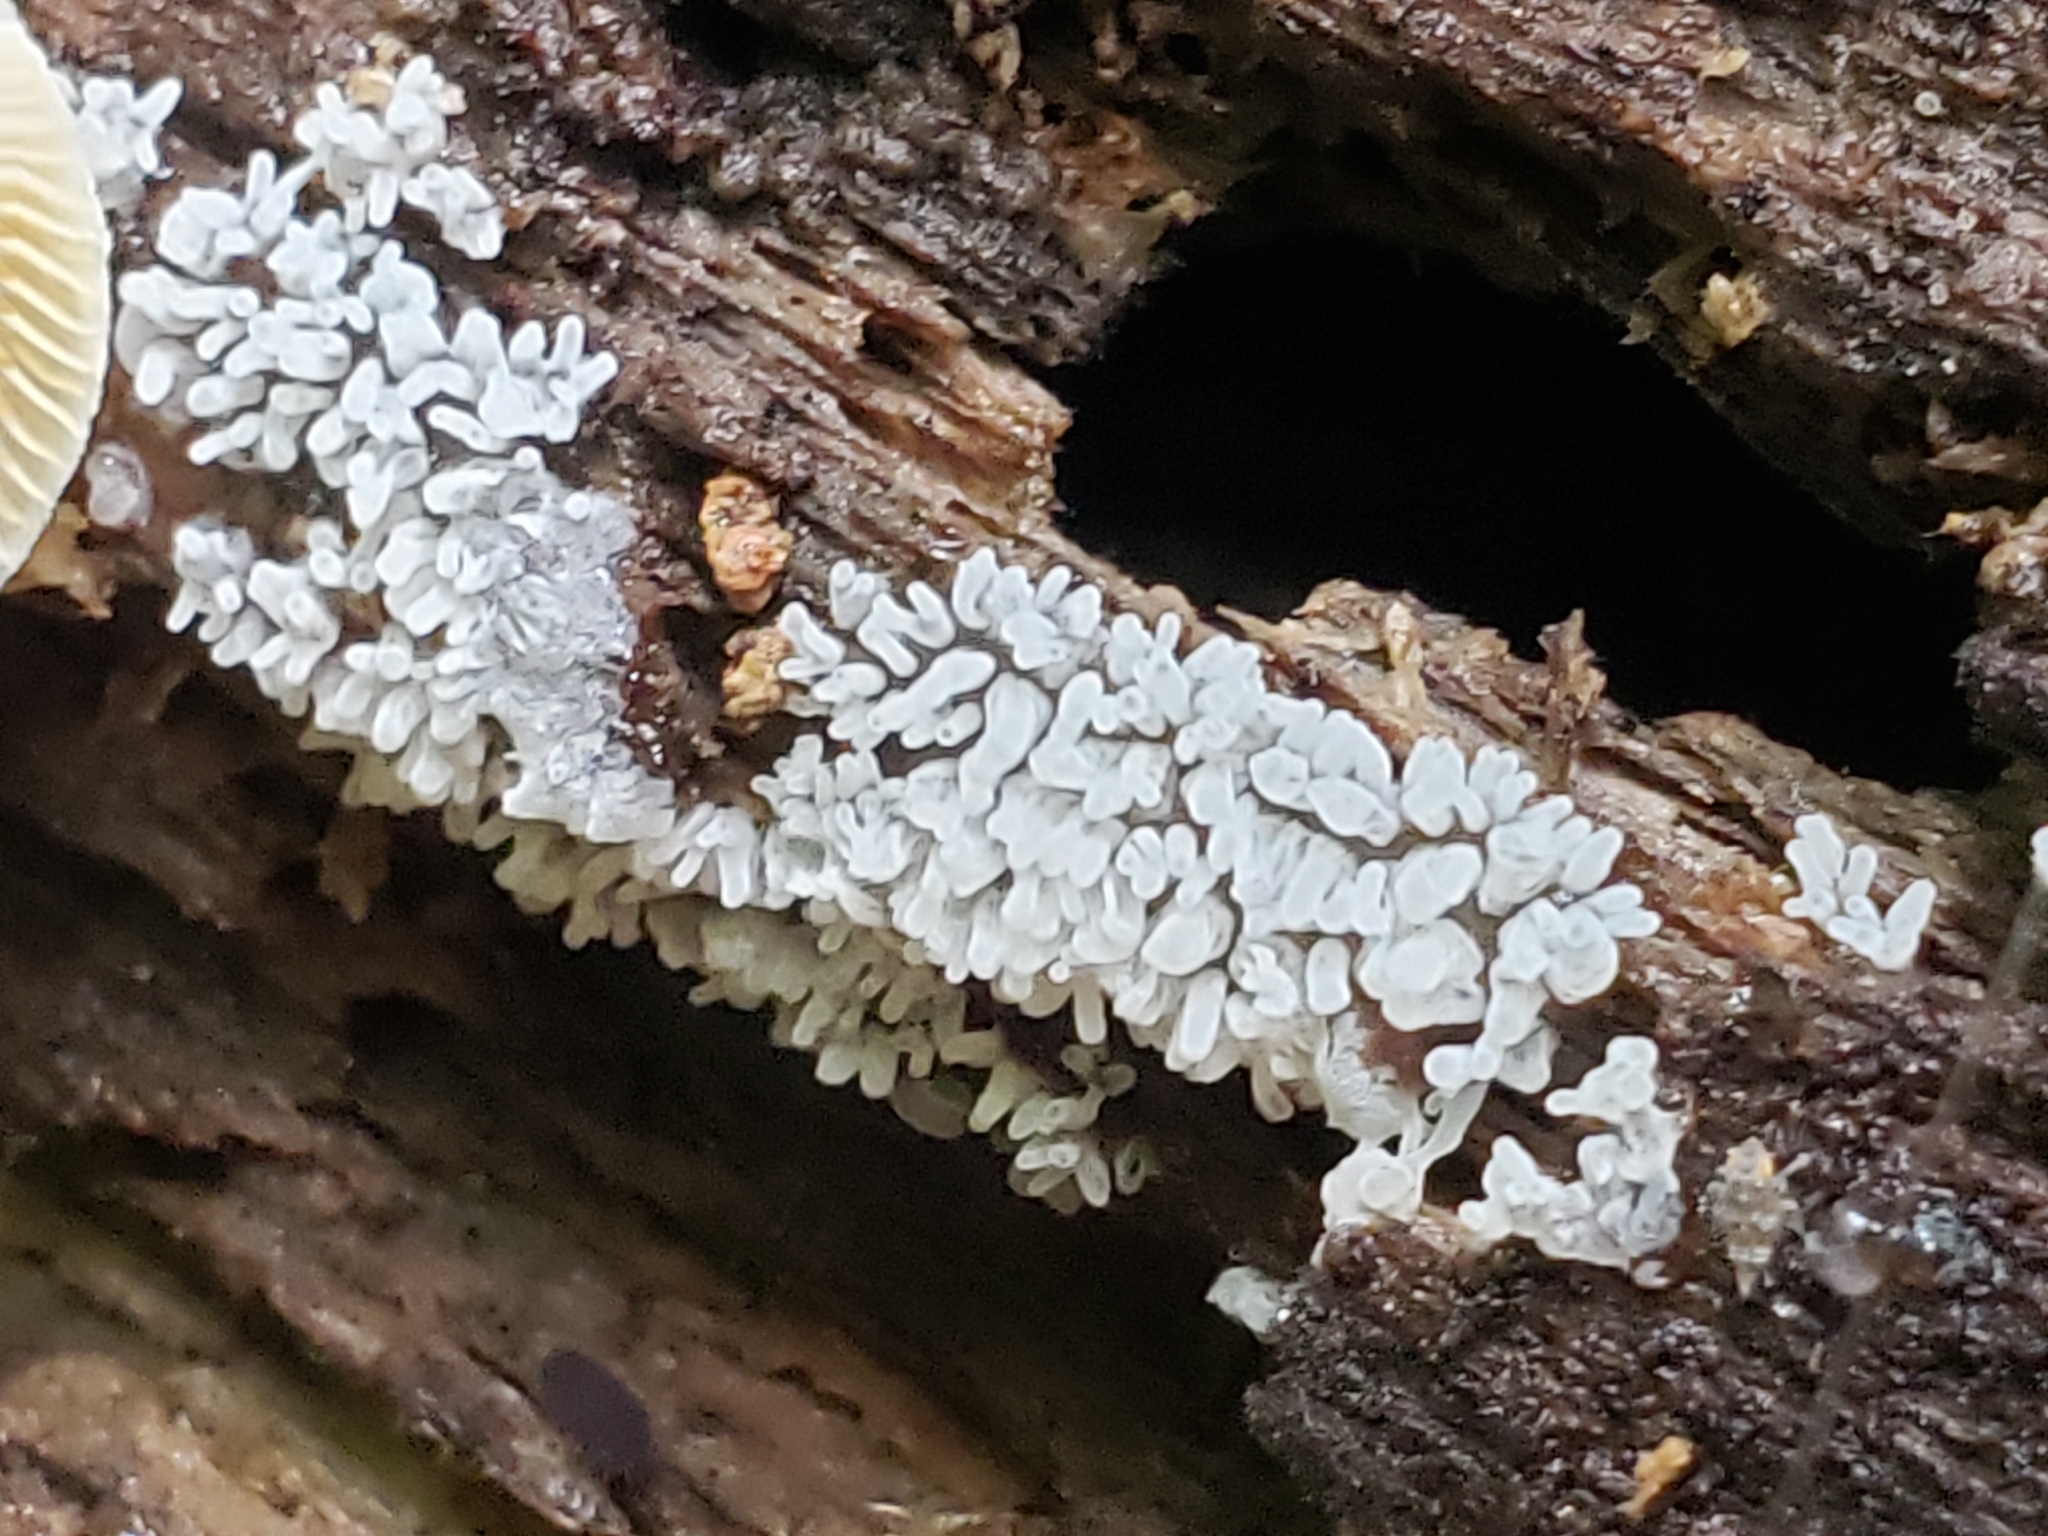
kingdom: Protozoa
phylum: Mycetozoa
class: Protosteliomycetes
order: Ceratiomyxales
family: Ceratiomyxaceae
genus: Ceratiomyxa
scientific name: Ceratiomyxa fruticulosa
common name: Honeycomb coral slime mold
